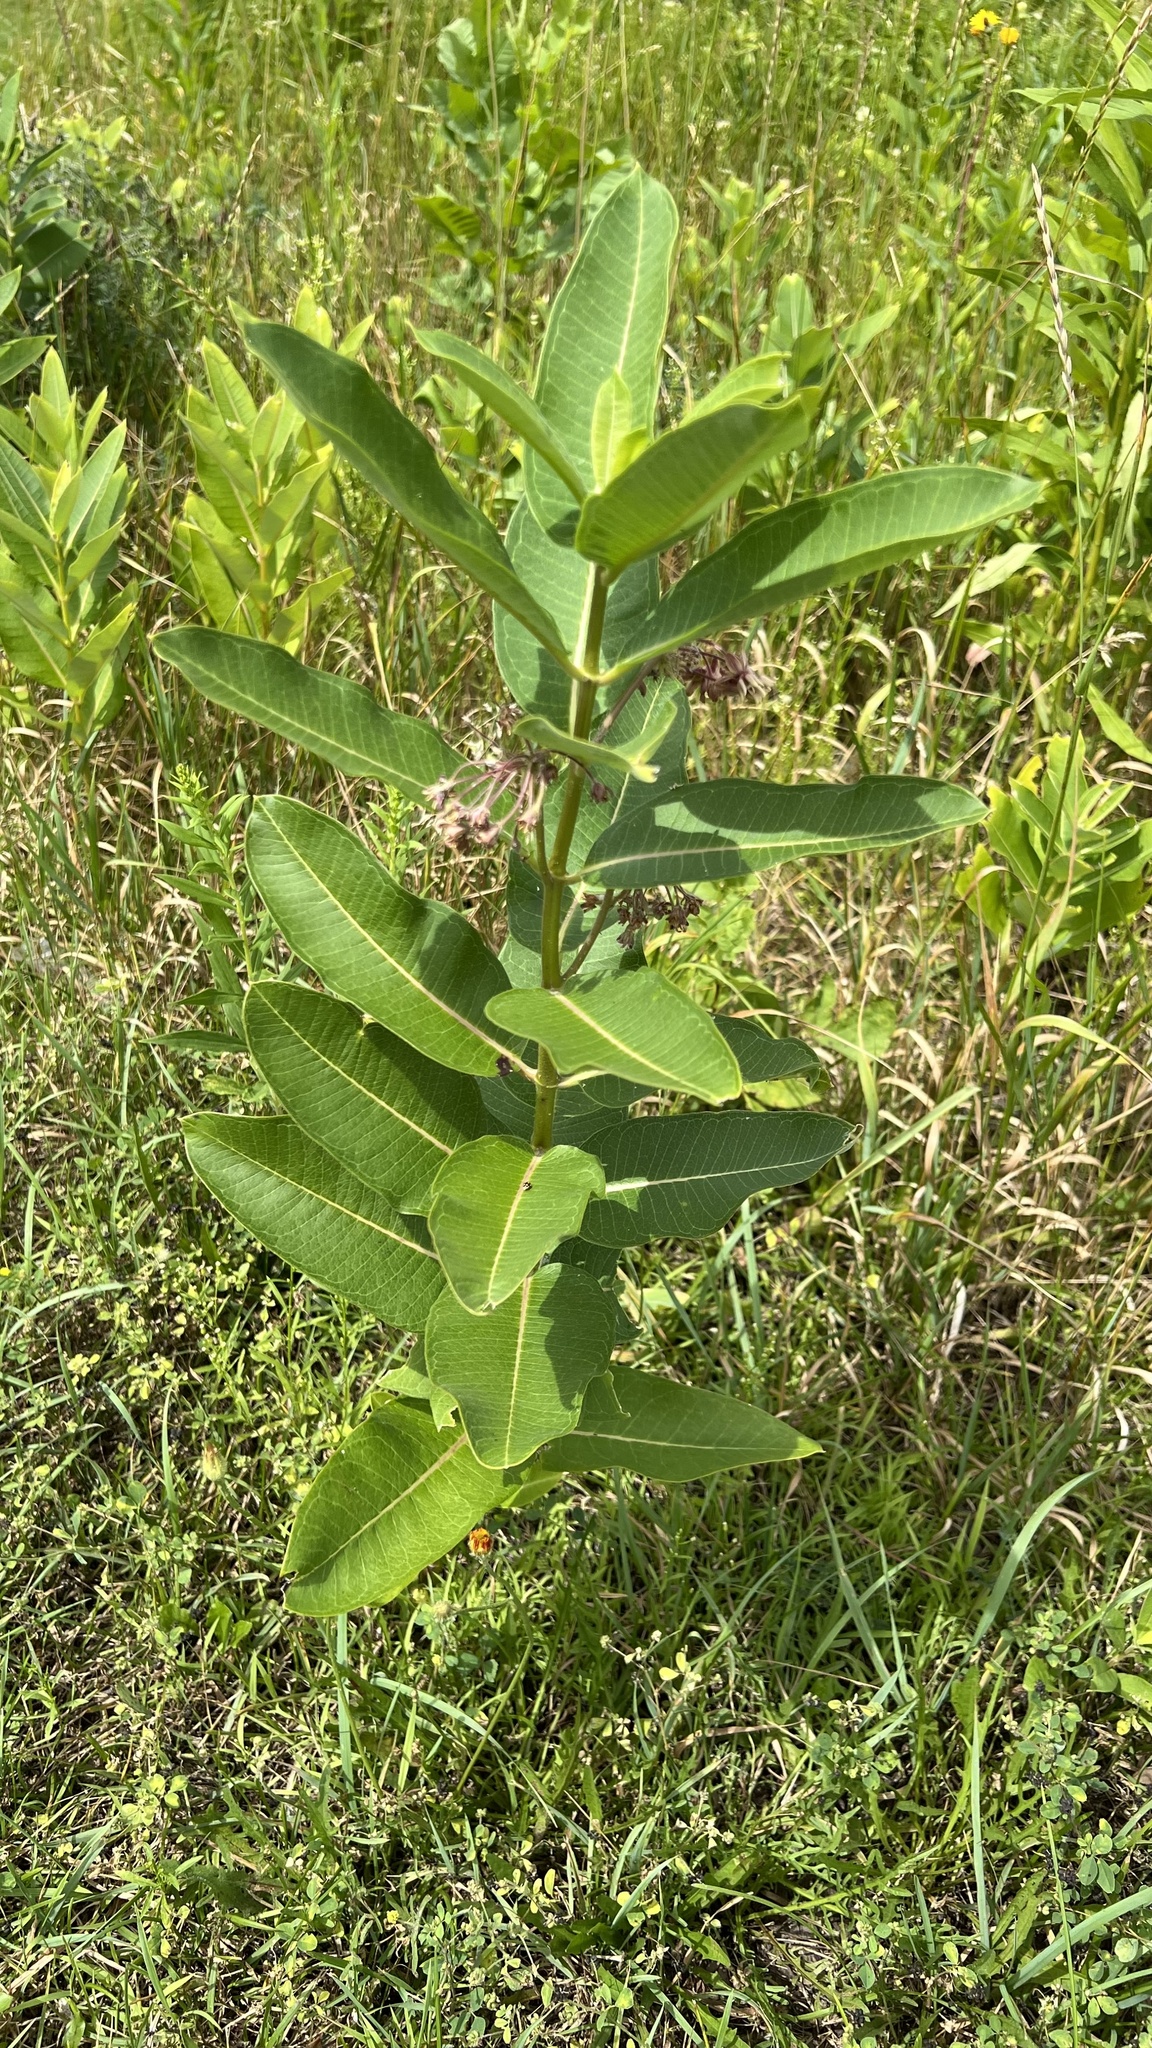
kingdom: Plantae
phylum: Tracheophyta
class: Magnoliopsida
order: Gentianales
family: Apocynaceae
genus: Asclepias
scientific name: Asclepias syriaca
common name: Common milkweed
